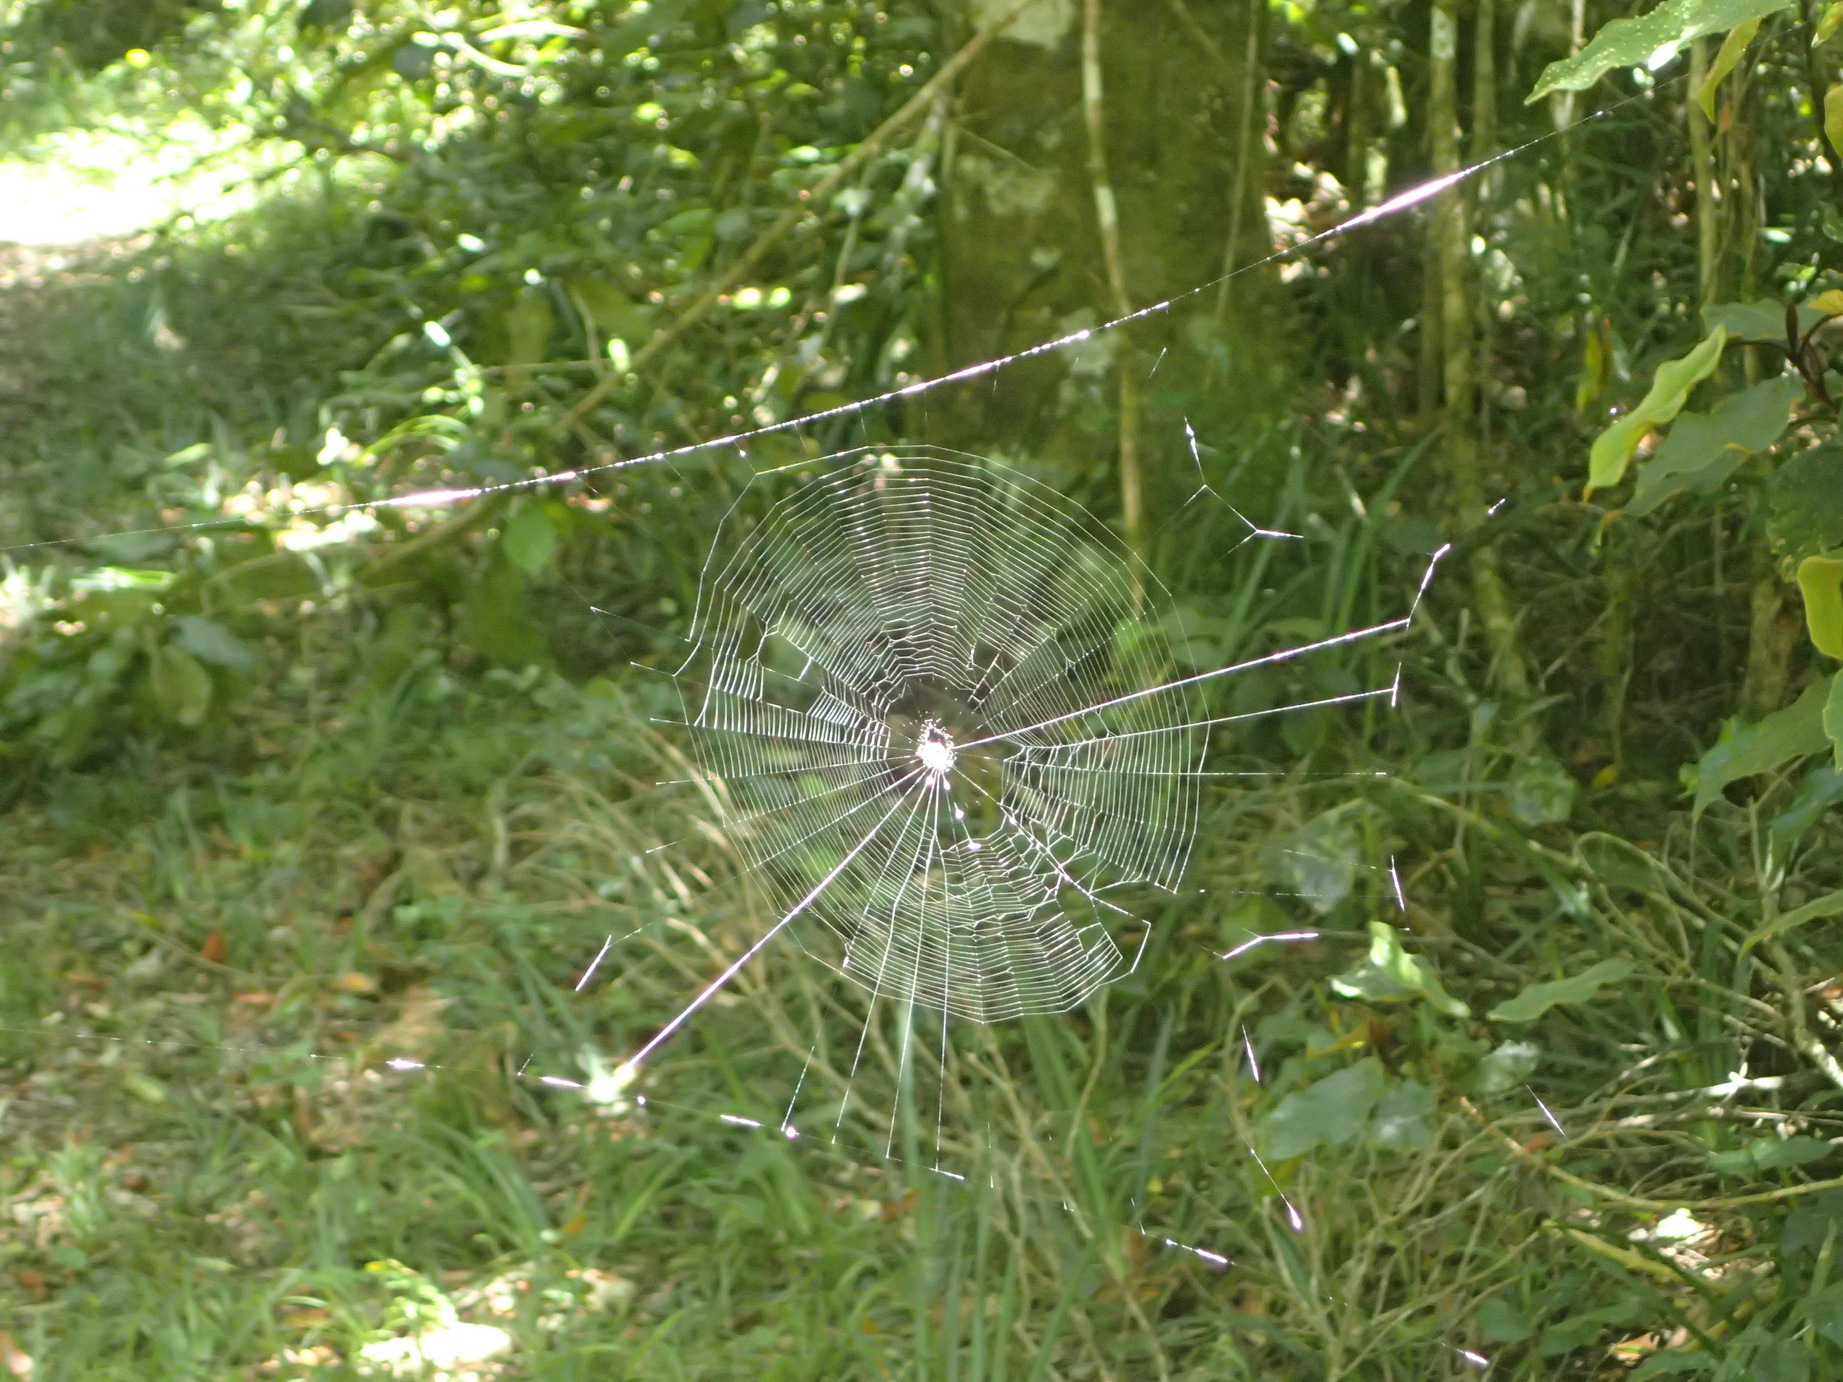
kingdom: Animalia
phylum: Arthropoda
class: Arachnida
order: Araneae
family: Araneidae
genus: Gasteracantha
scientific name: Gasteracantha sanguinolenta
